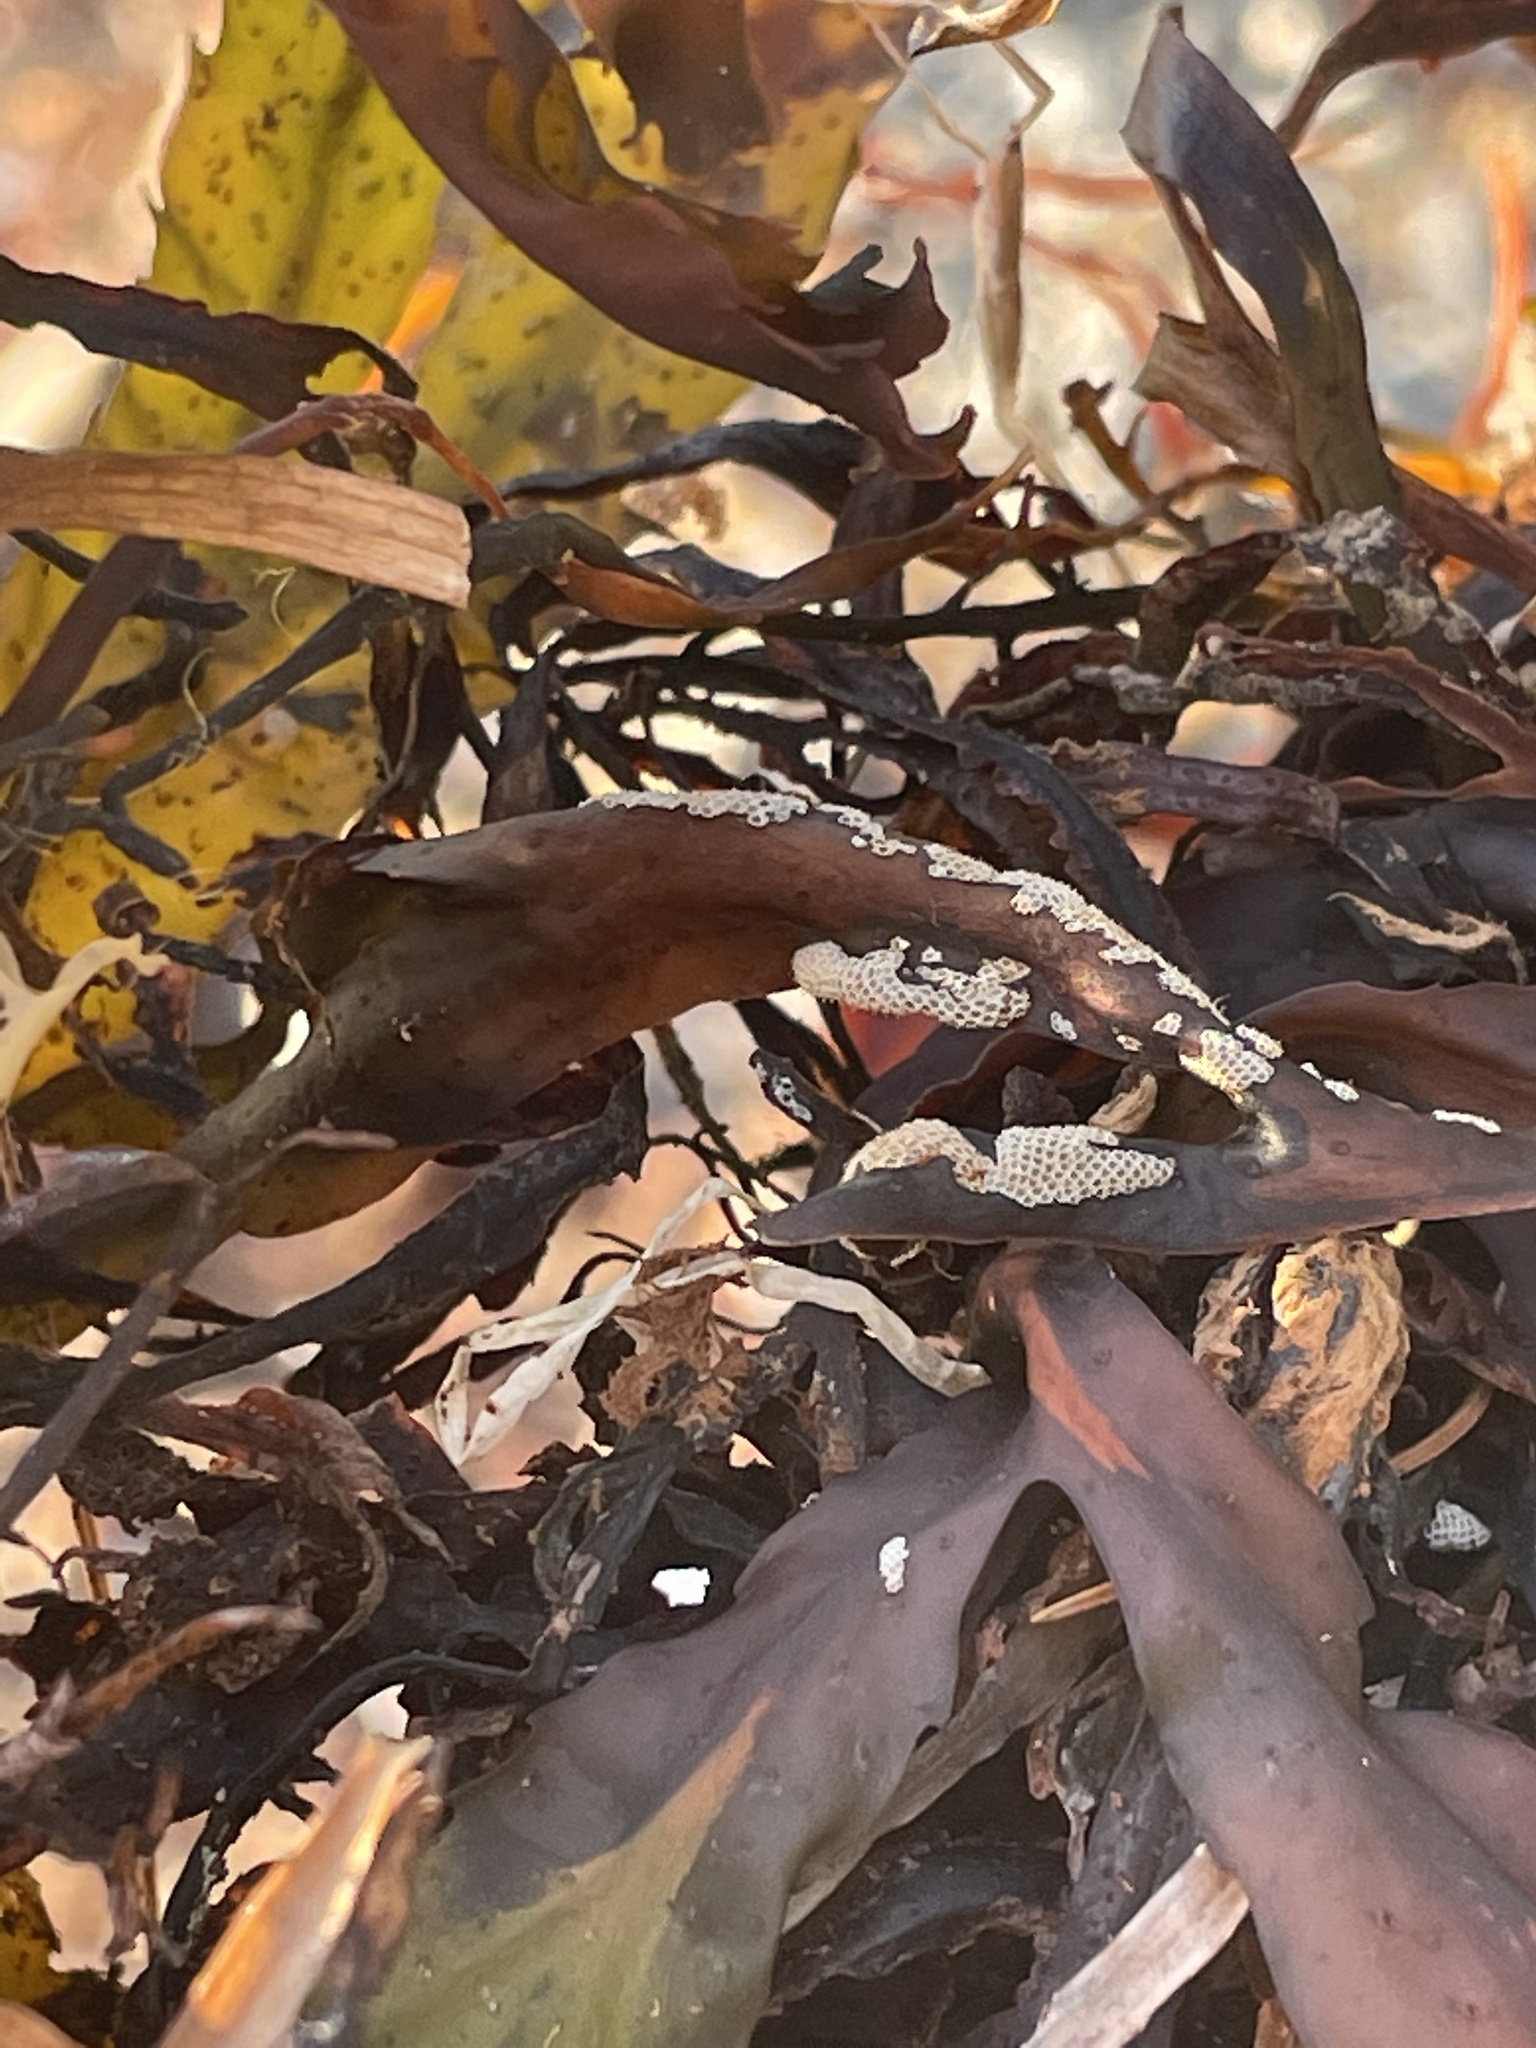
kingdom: Animalia
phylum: Bryozoa
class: Gymnolaemata
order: Cheilostomatida
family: Electridae
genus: Electra
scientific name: Electra pilosa
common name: Hairy sea-mat
